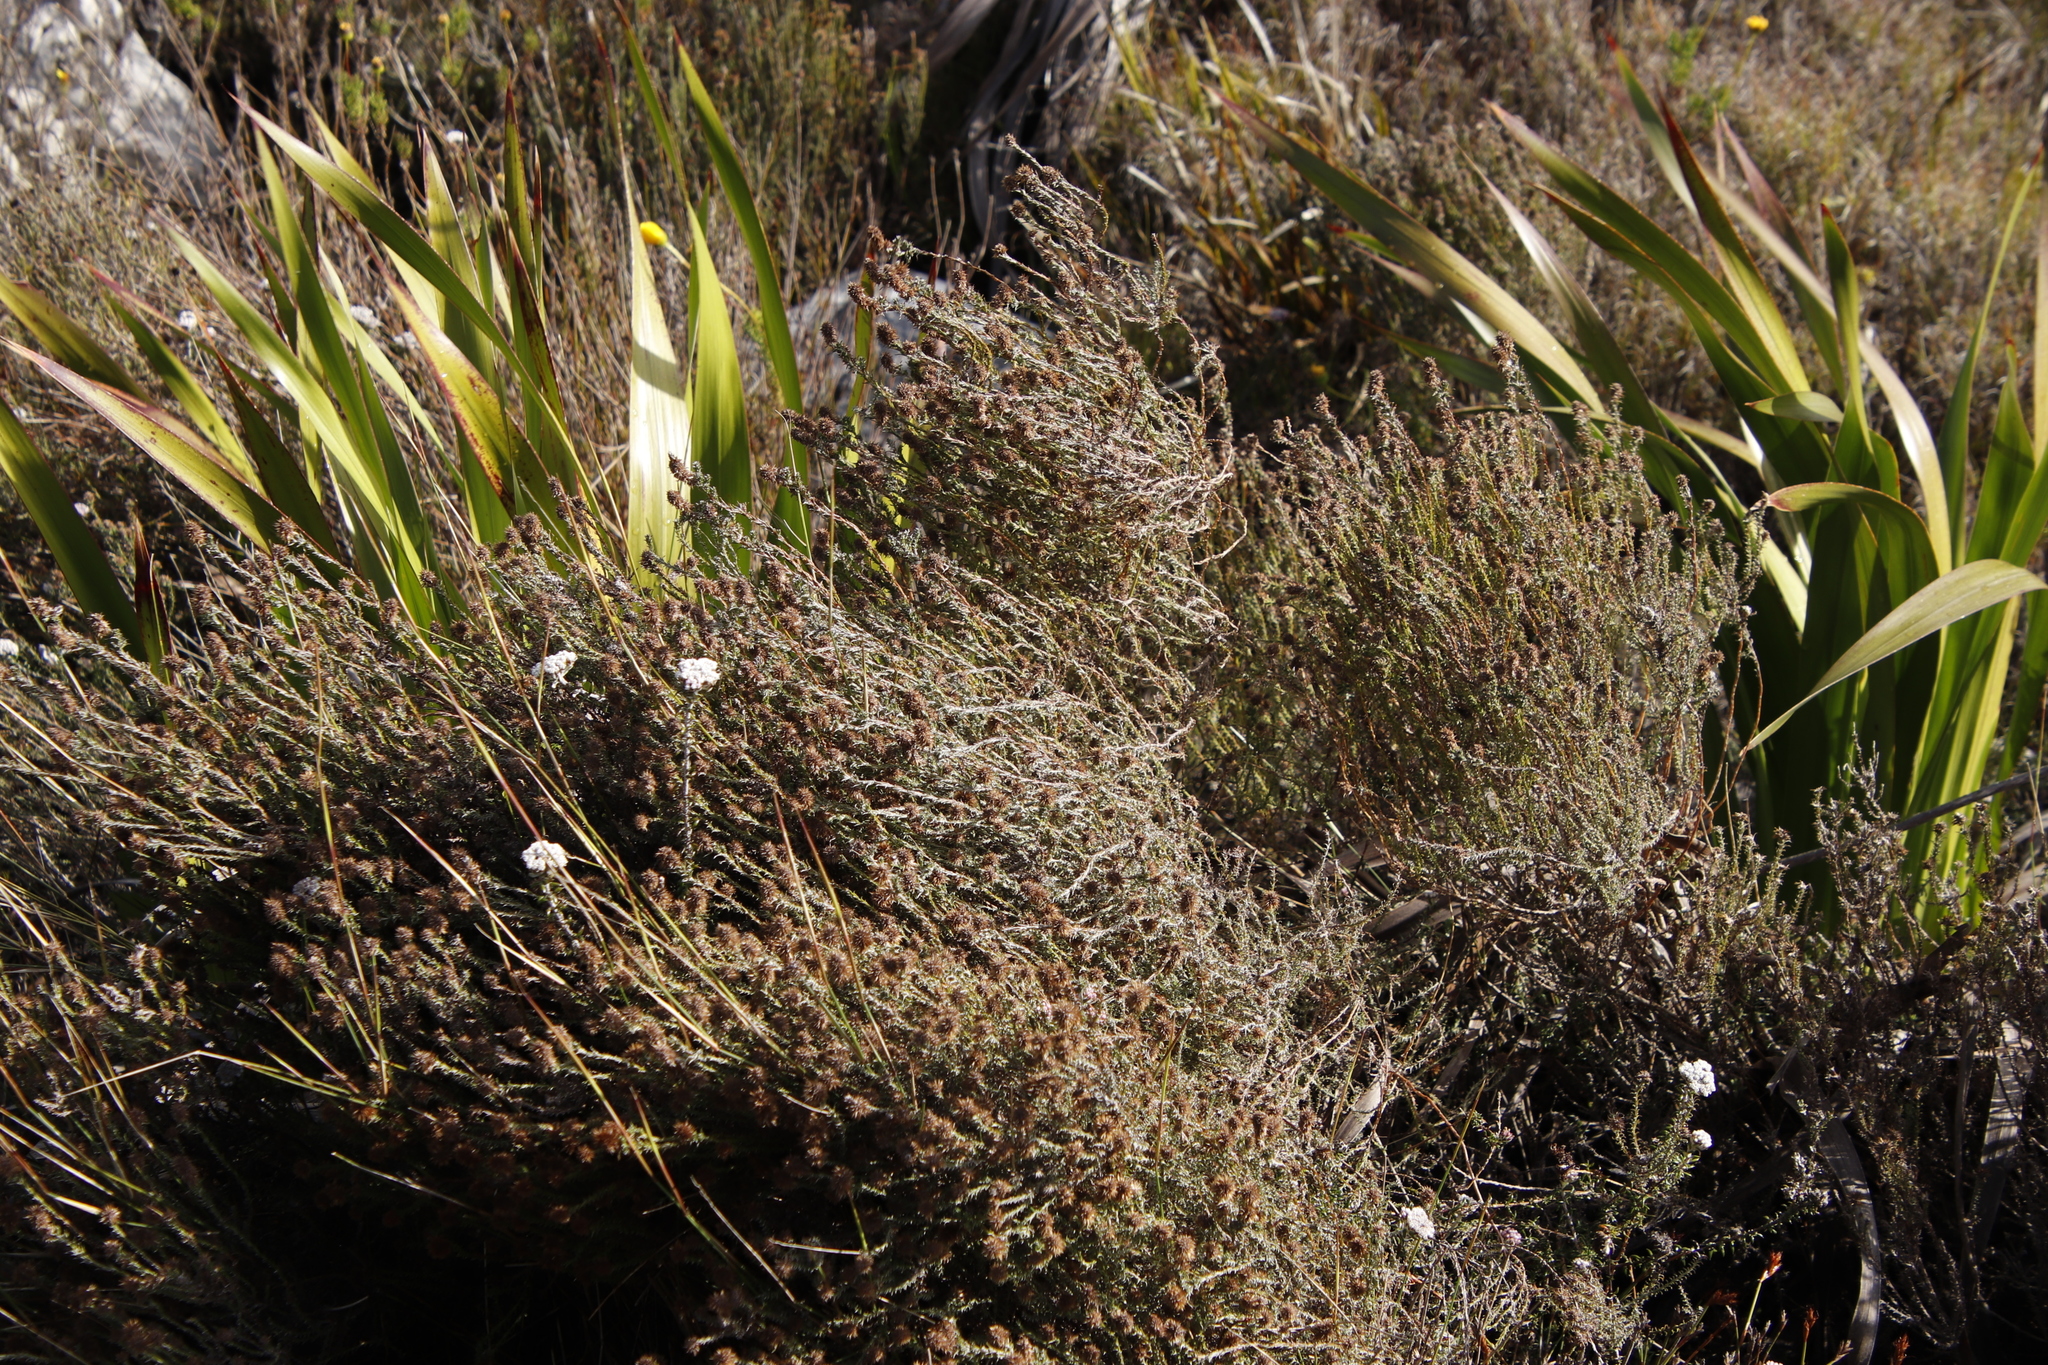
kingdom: Plantae
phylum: Tracheophyta
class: Magnoliopsida
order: Asterales
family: Asteraceae
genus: Seriphium
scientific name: Seriphium cinereum
